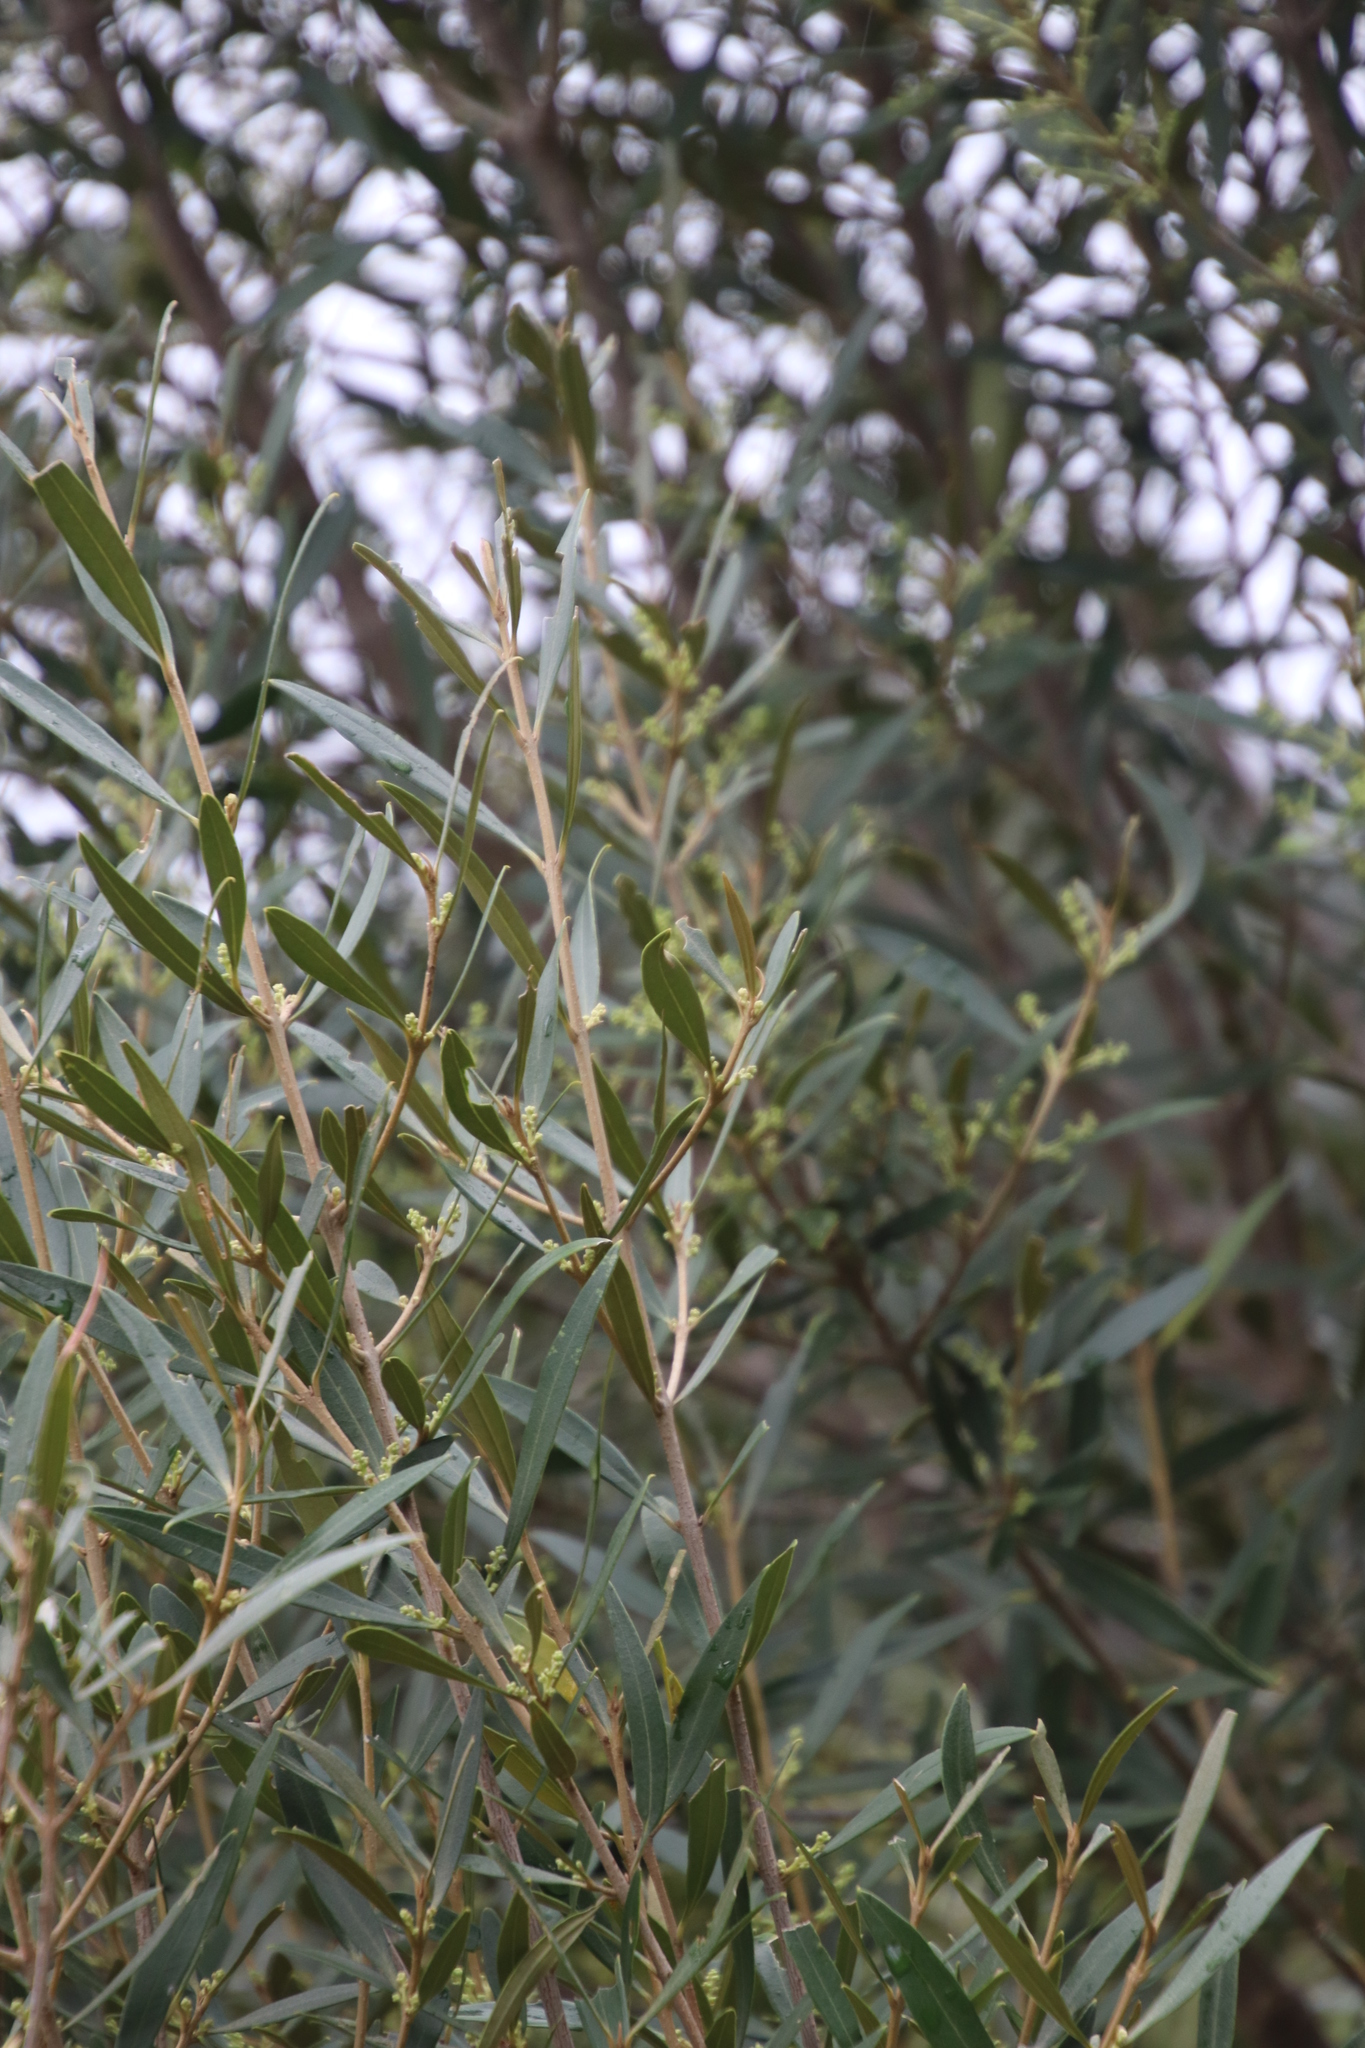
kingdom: Plantae
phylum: Tracheophyta
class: Magnoliopsida
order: Lamiales
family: Oleaceae
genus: Olea
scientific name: Olea europaea
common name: Olive
